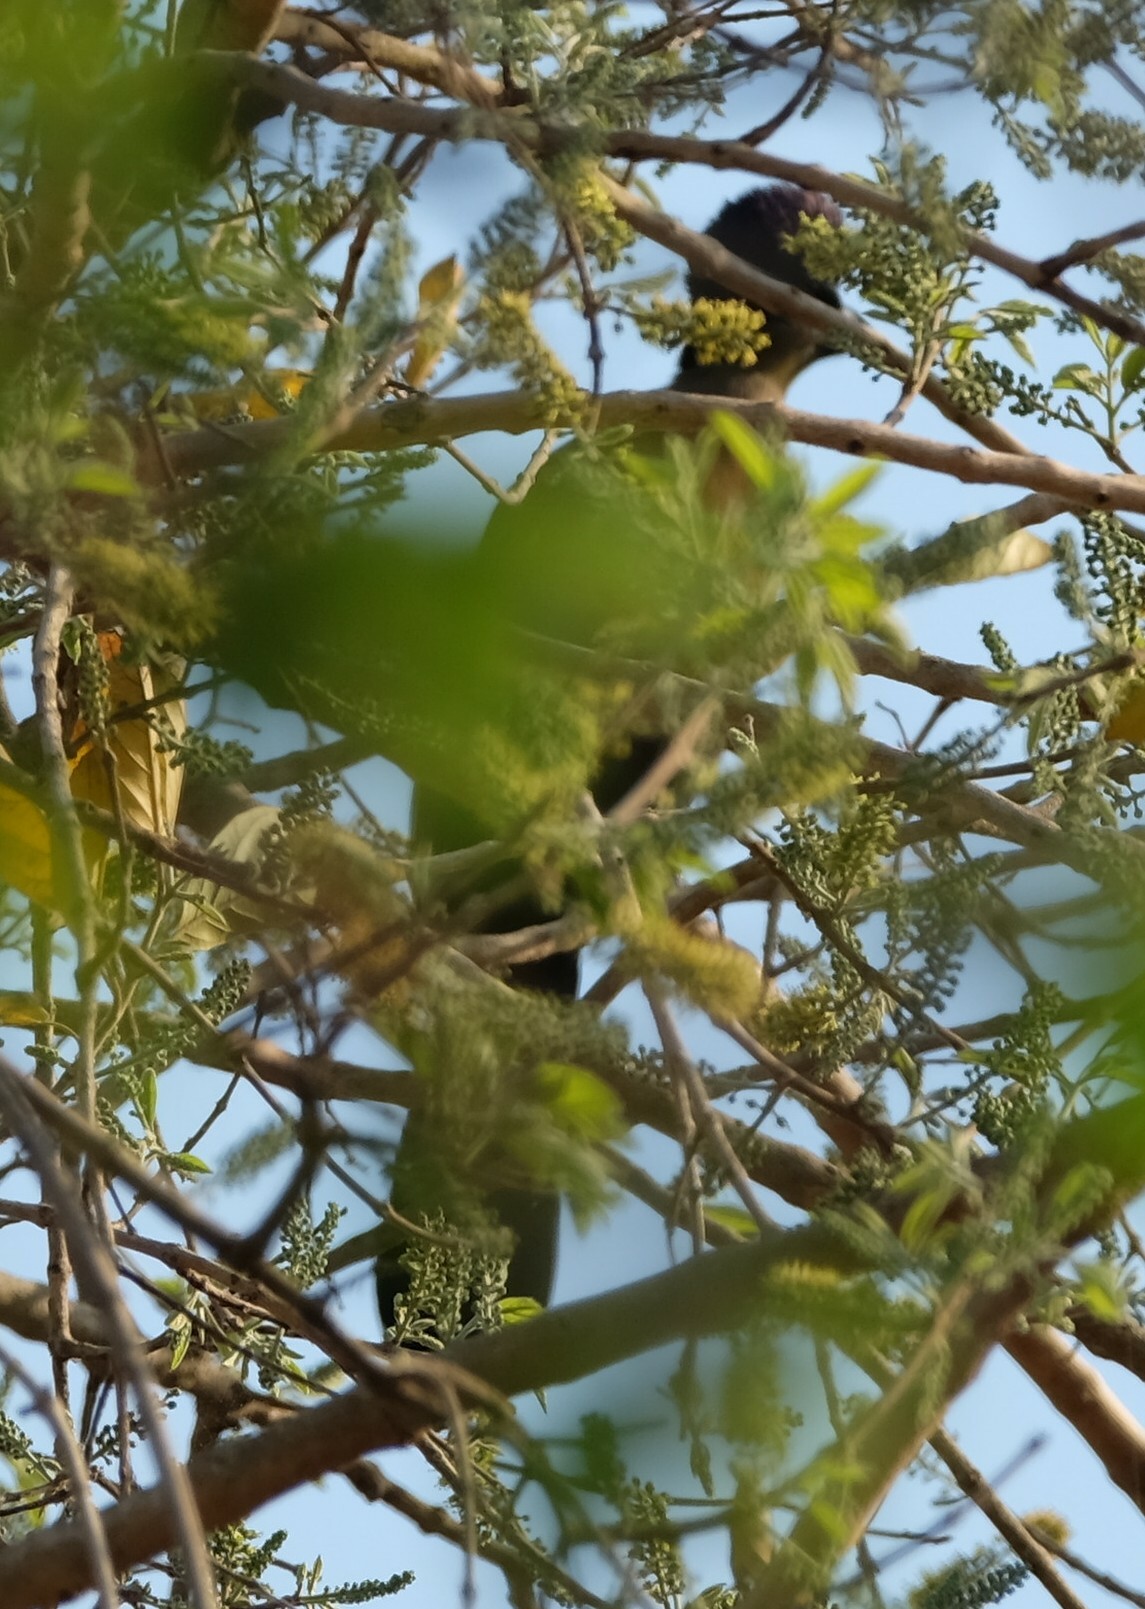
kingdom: Animalia
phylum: Chordata
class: Aves
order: Musophagiformes
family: Musophagidae
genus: Tauraco
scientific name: Tauraco porphyreolophus
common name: Purple-crested turaco
